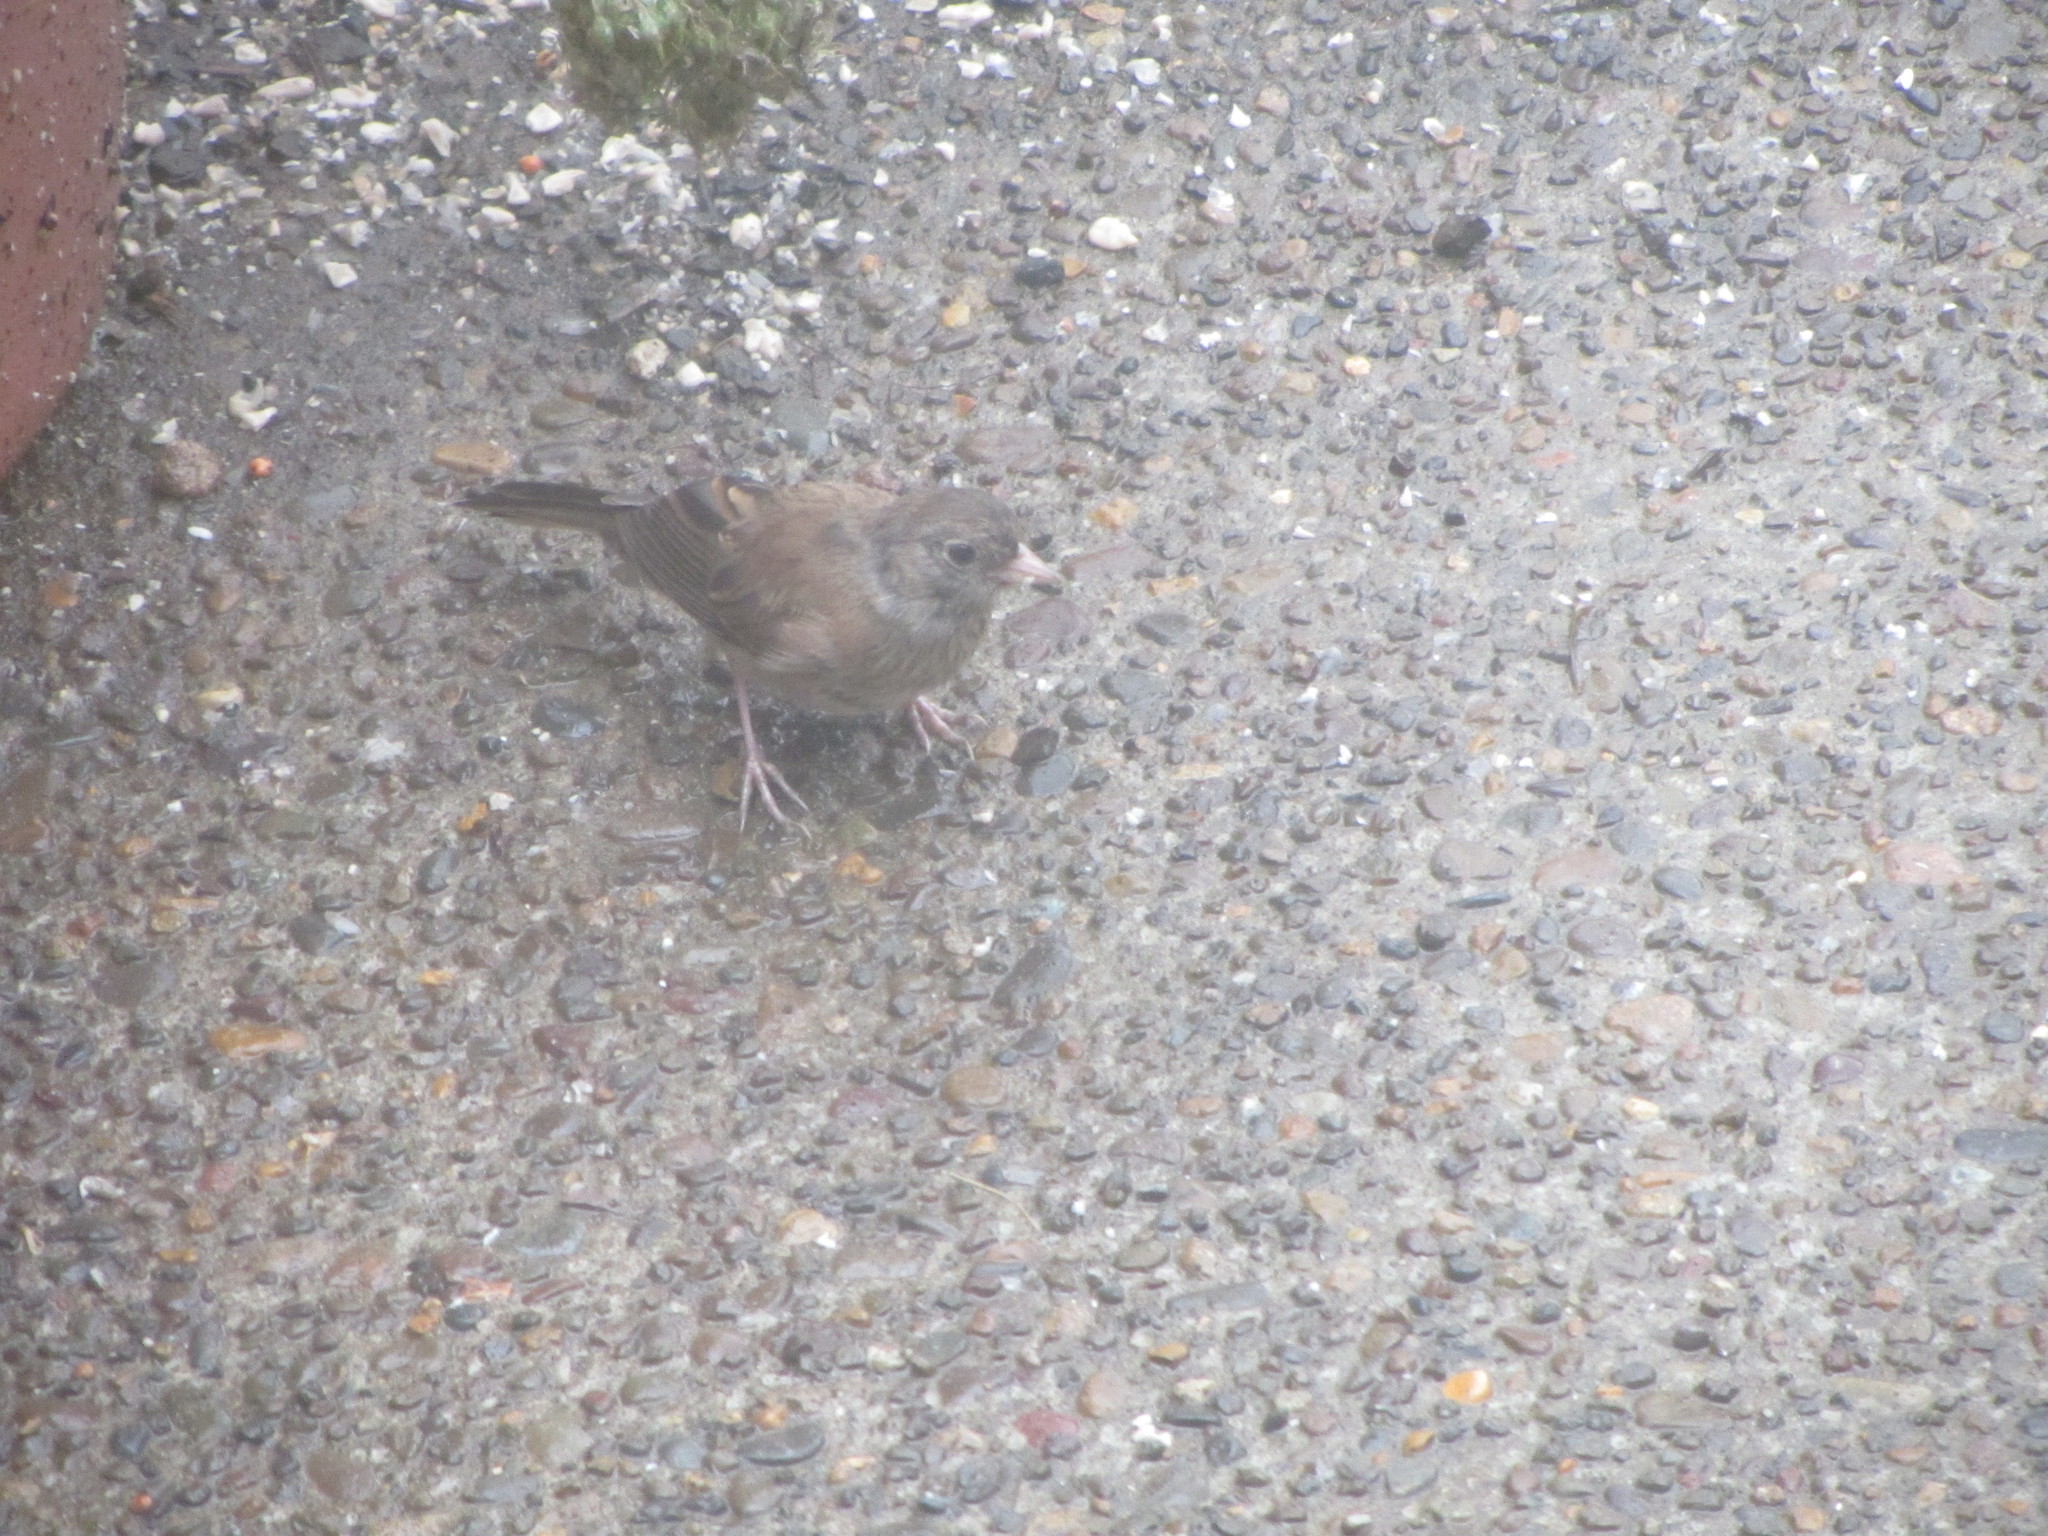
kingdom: Animalia
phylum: Chordata
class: Aves
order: Passeriformes
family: Passerellidae
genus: Junco
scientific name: Junco hyemalis
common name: Dark-eyed junco
